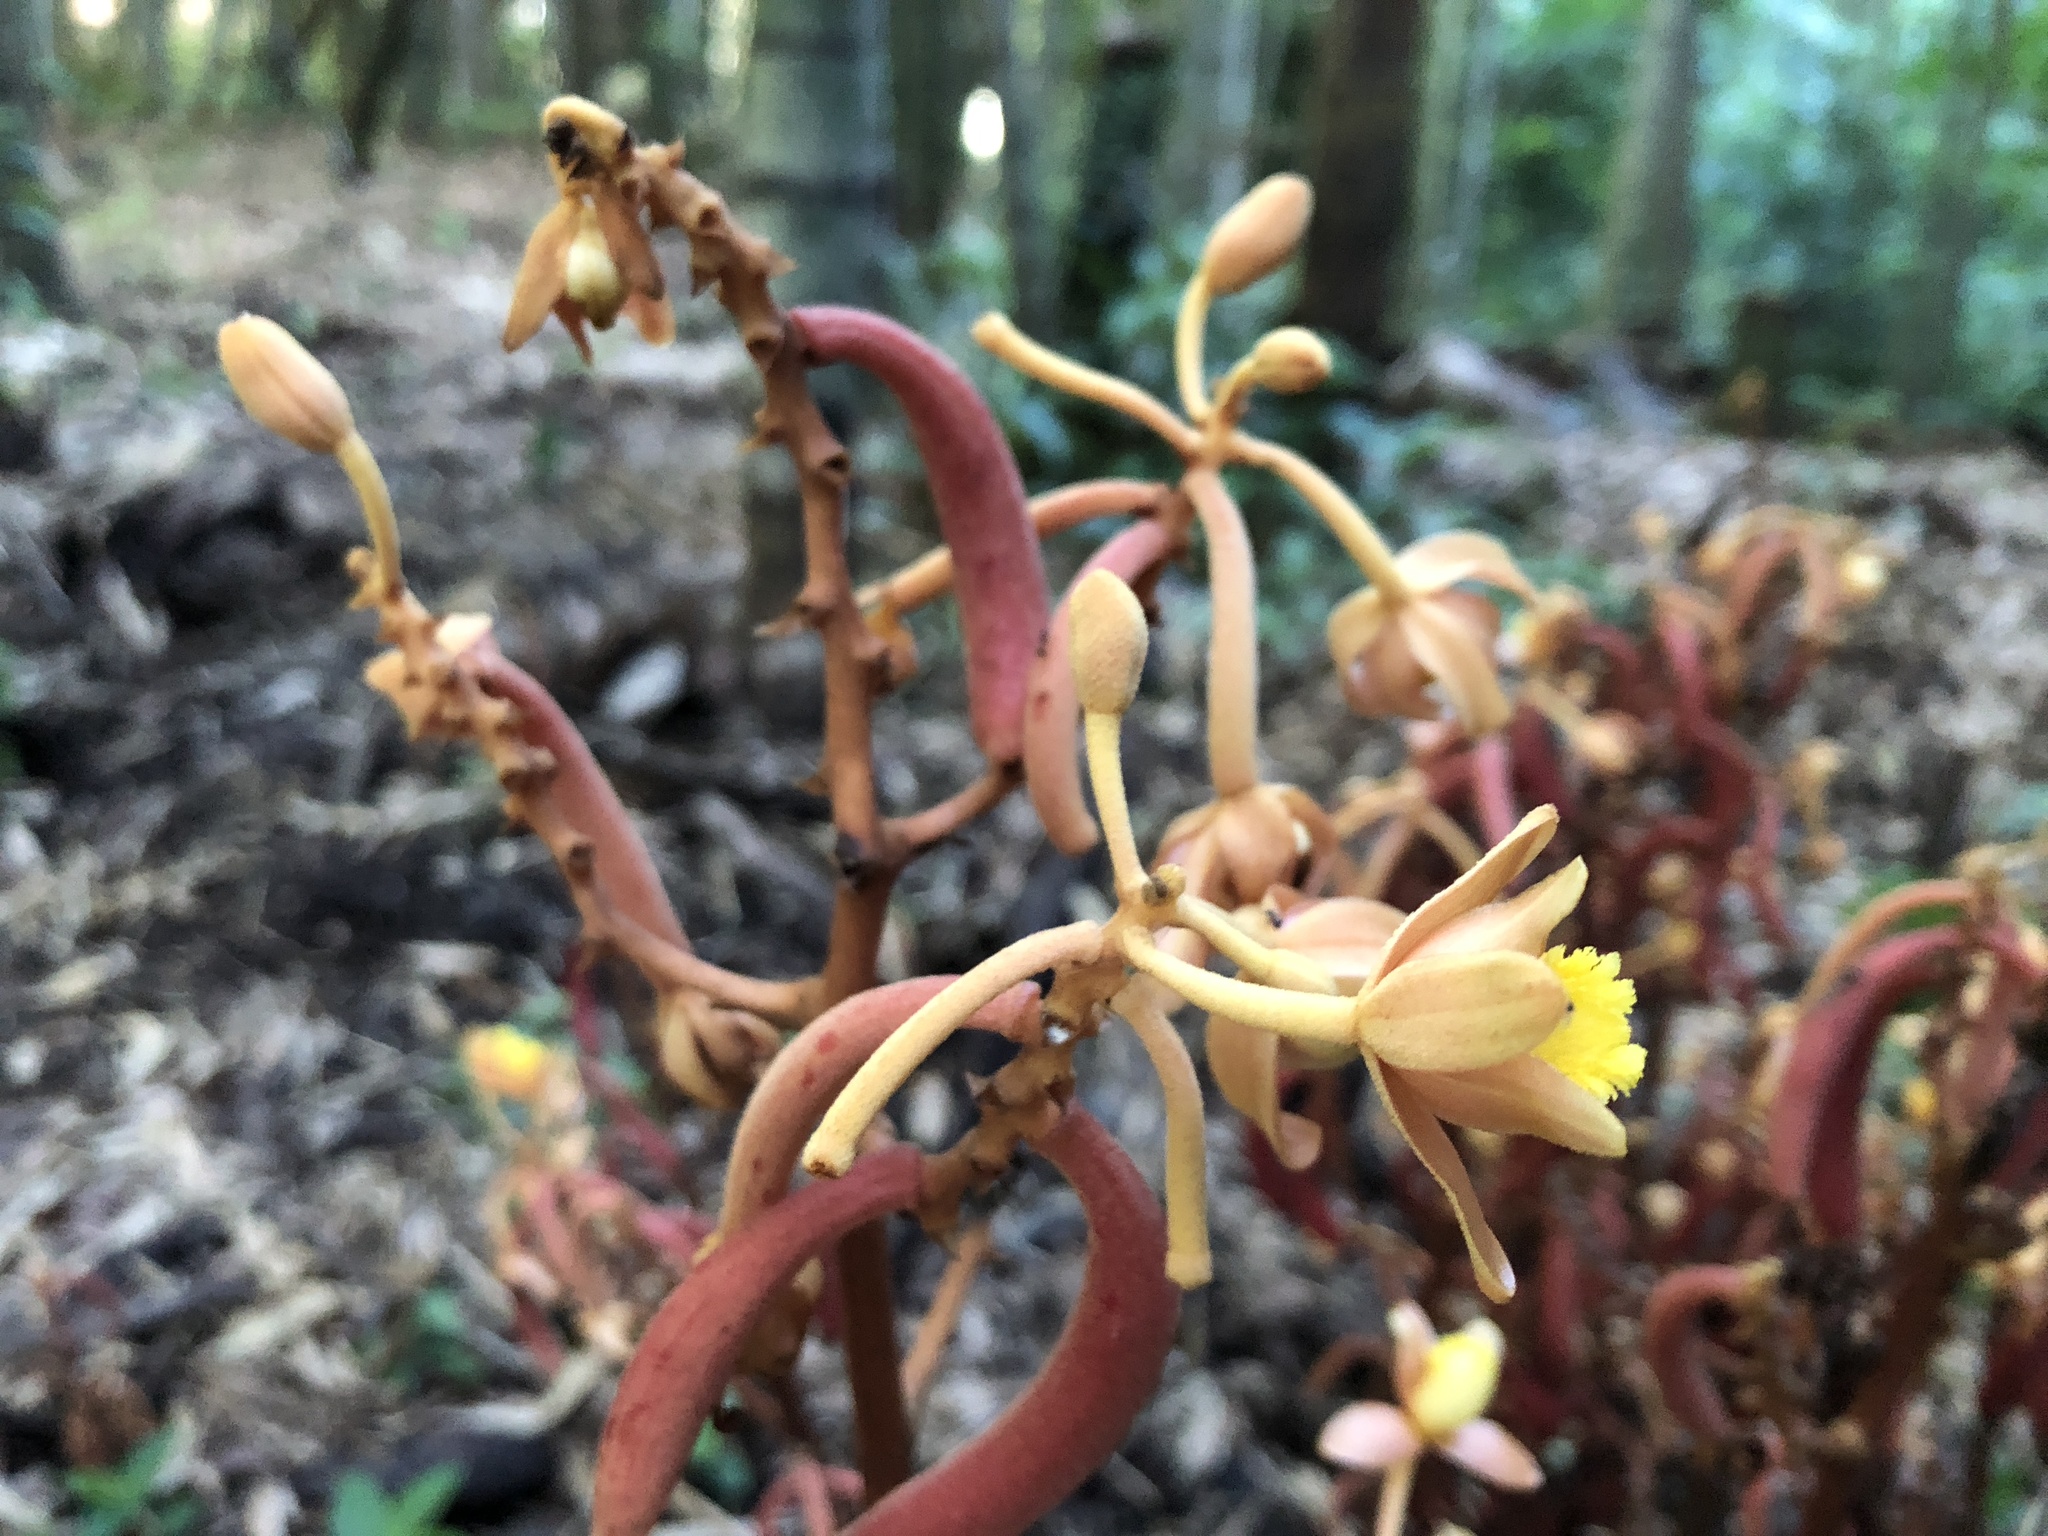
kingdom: Plantae
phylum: Tracheophyta
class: Liliopsida
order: Asparagales
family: Orchidaceae
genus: Cyrtosia
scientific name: Cyrtosia septentrionalis
